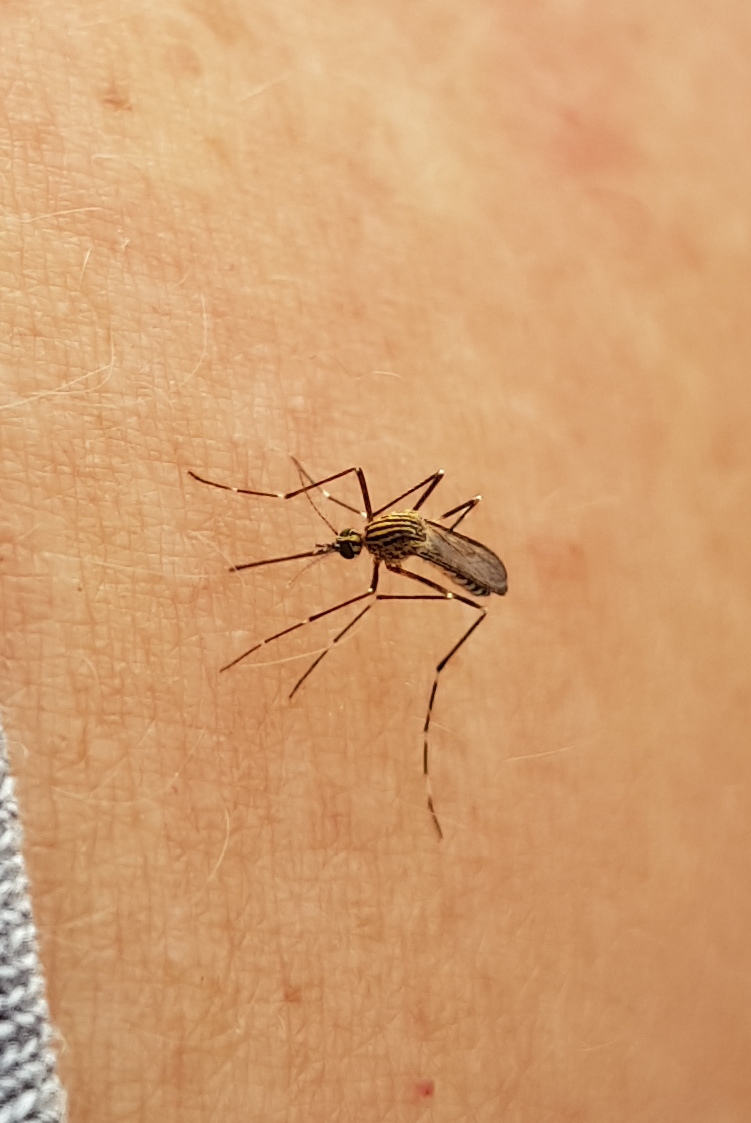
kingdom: Animalia
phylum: Arthropoda
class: Insecta
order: Diptera
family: Culicidae
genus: Aedes
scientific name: Aedes sexlineatus
